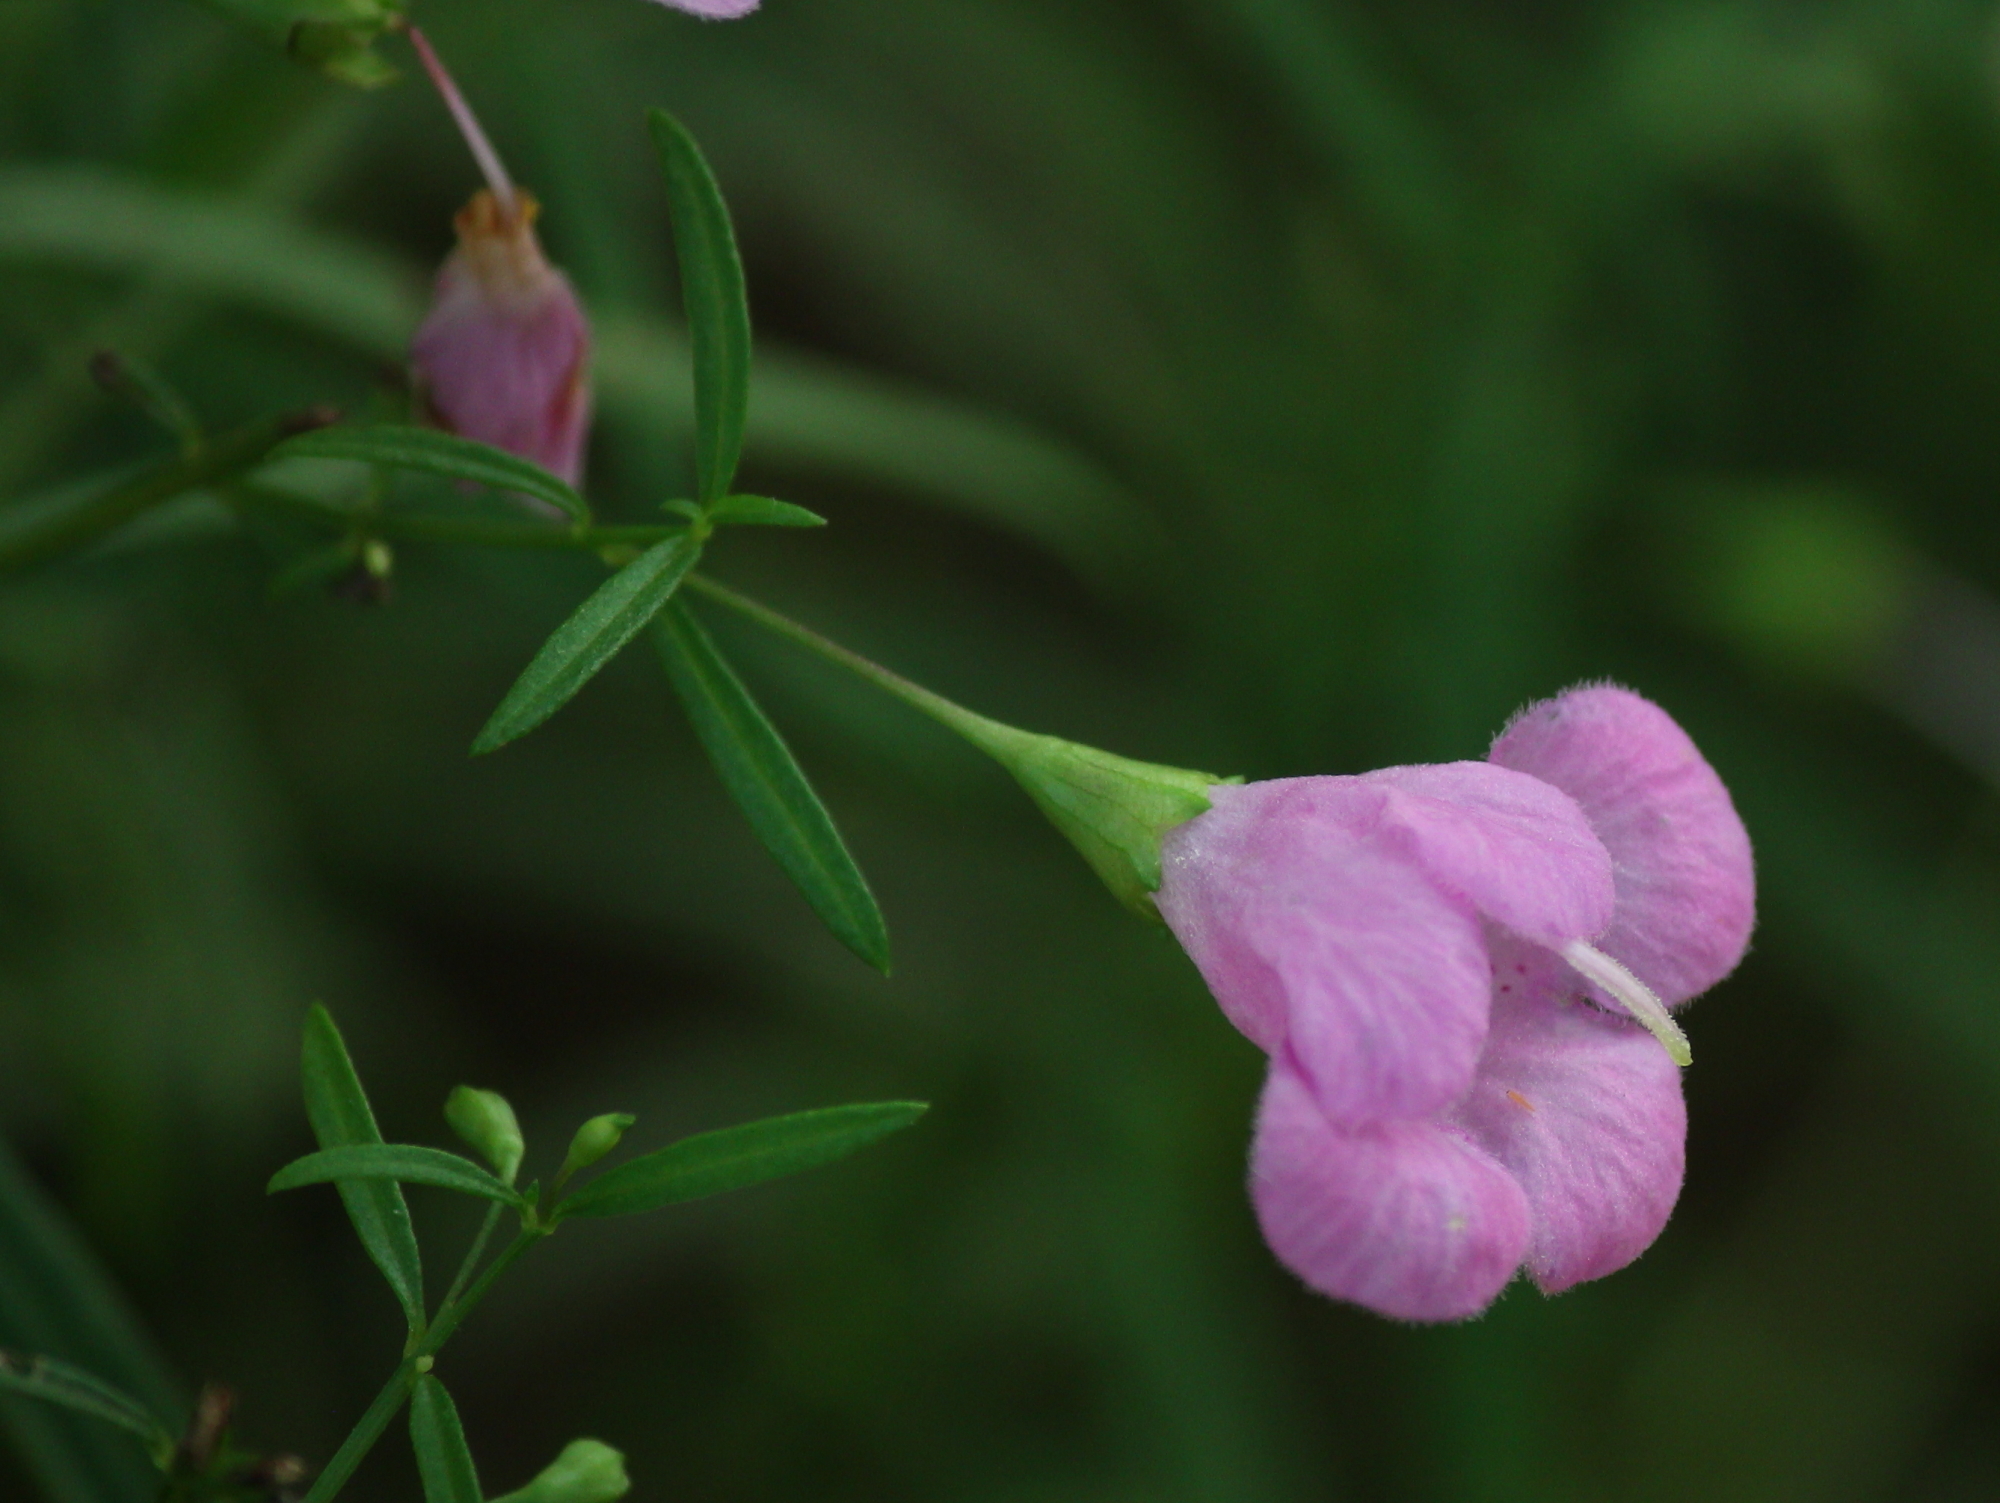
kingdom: Plantae
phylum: Tracheophyta
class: Magnoliopsida
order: Lamiales
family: Orobanchaceae
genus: Agalinis
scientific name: Agalinis tenuifolia
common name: Slender agalinis
